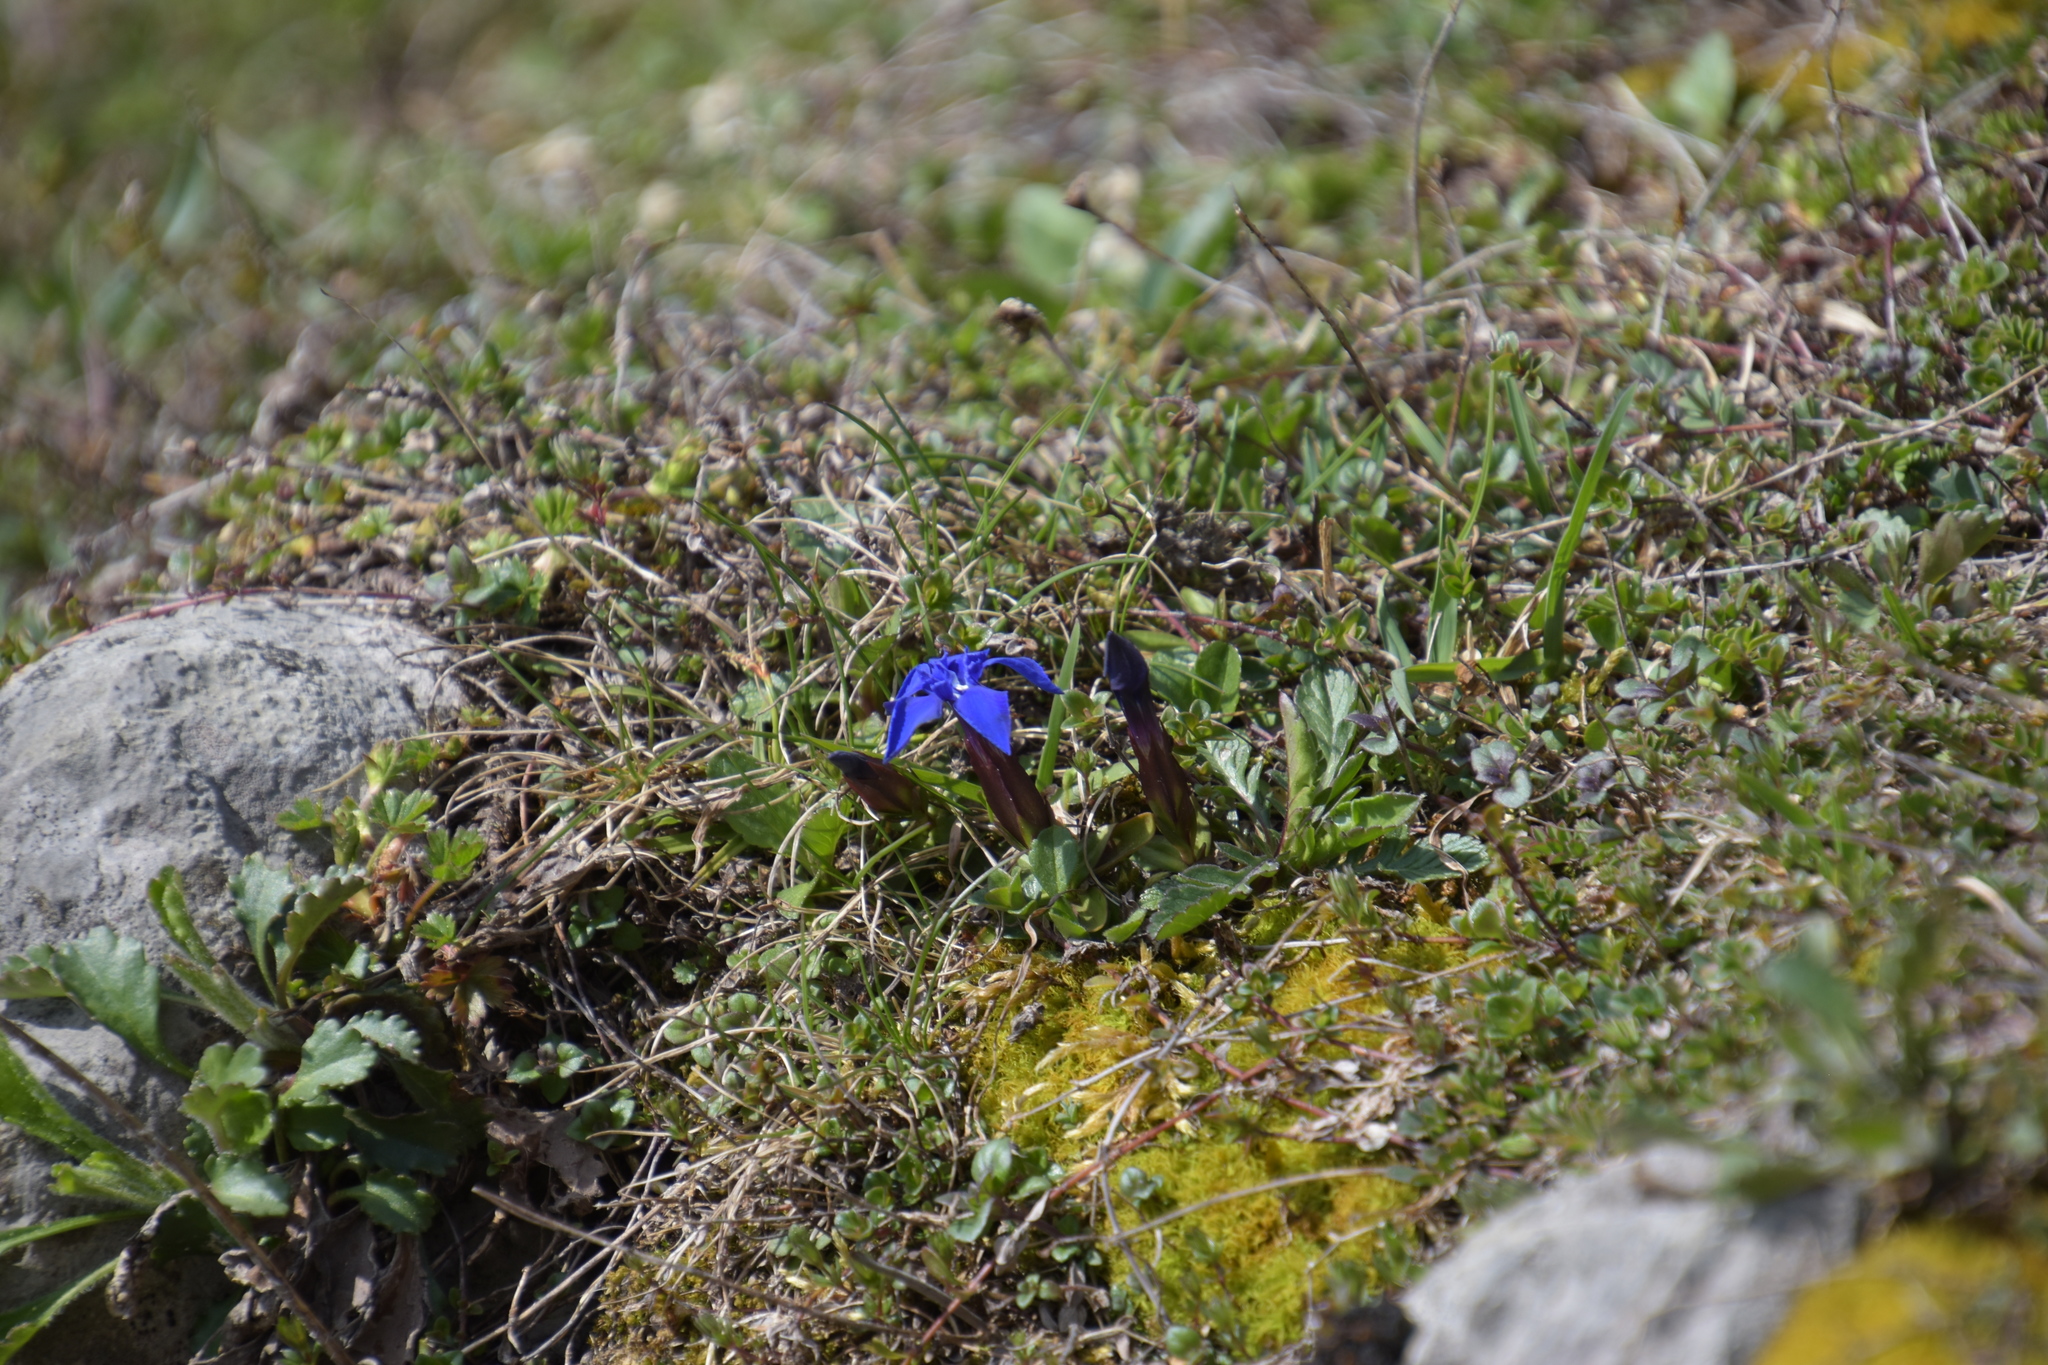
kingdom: Plantae
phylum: Tracheophyta
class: Magnoliopsida
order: Gentianales
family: Gentianaceae
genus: Gentiana
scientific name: Gentiana verna
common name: Spring gentian
